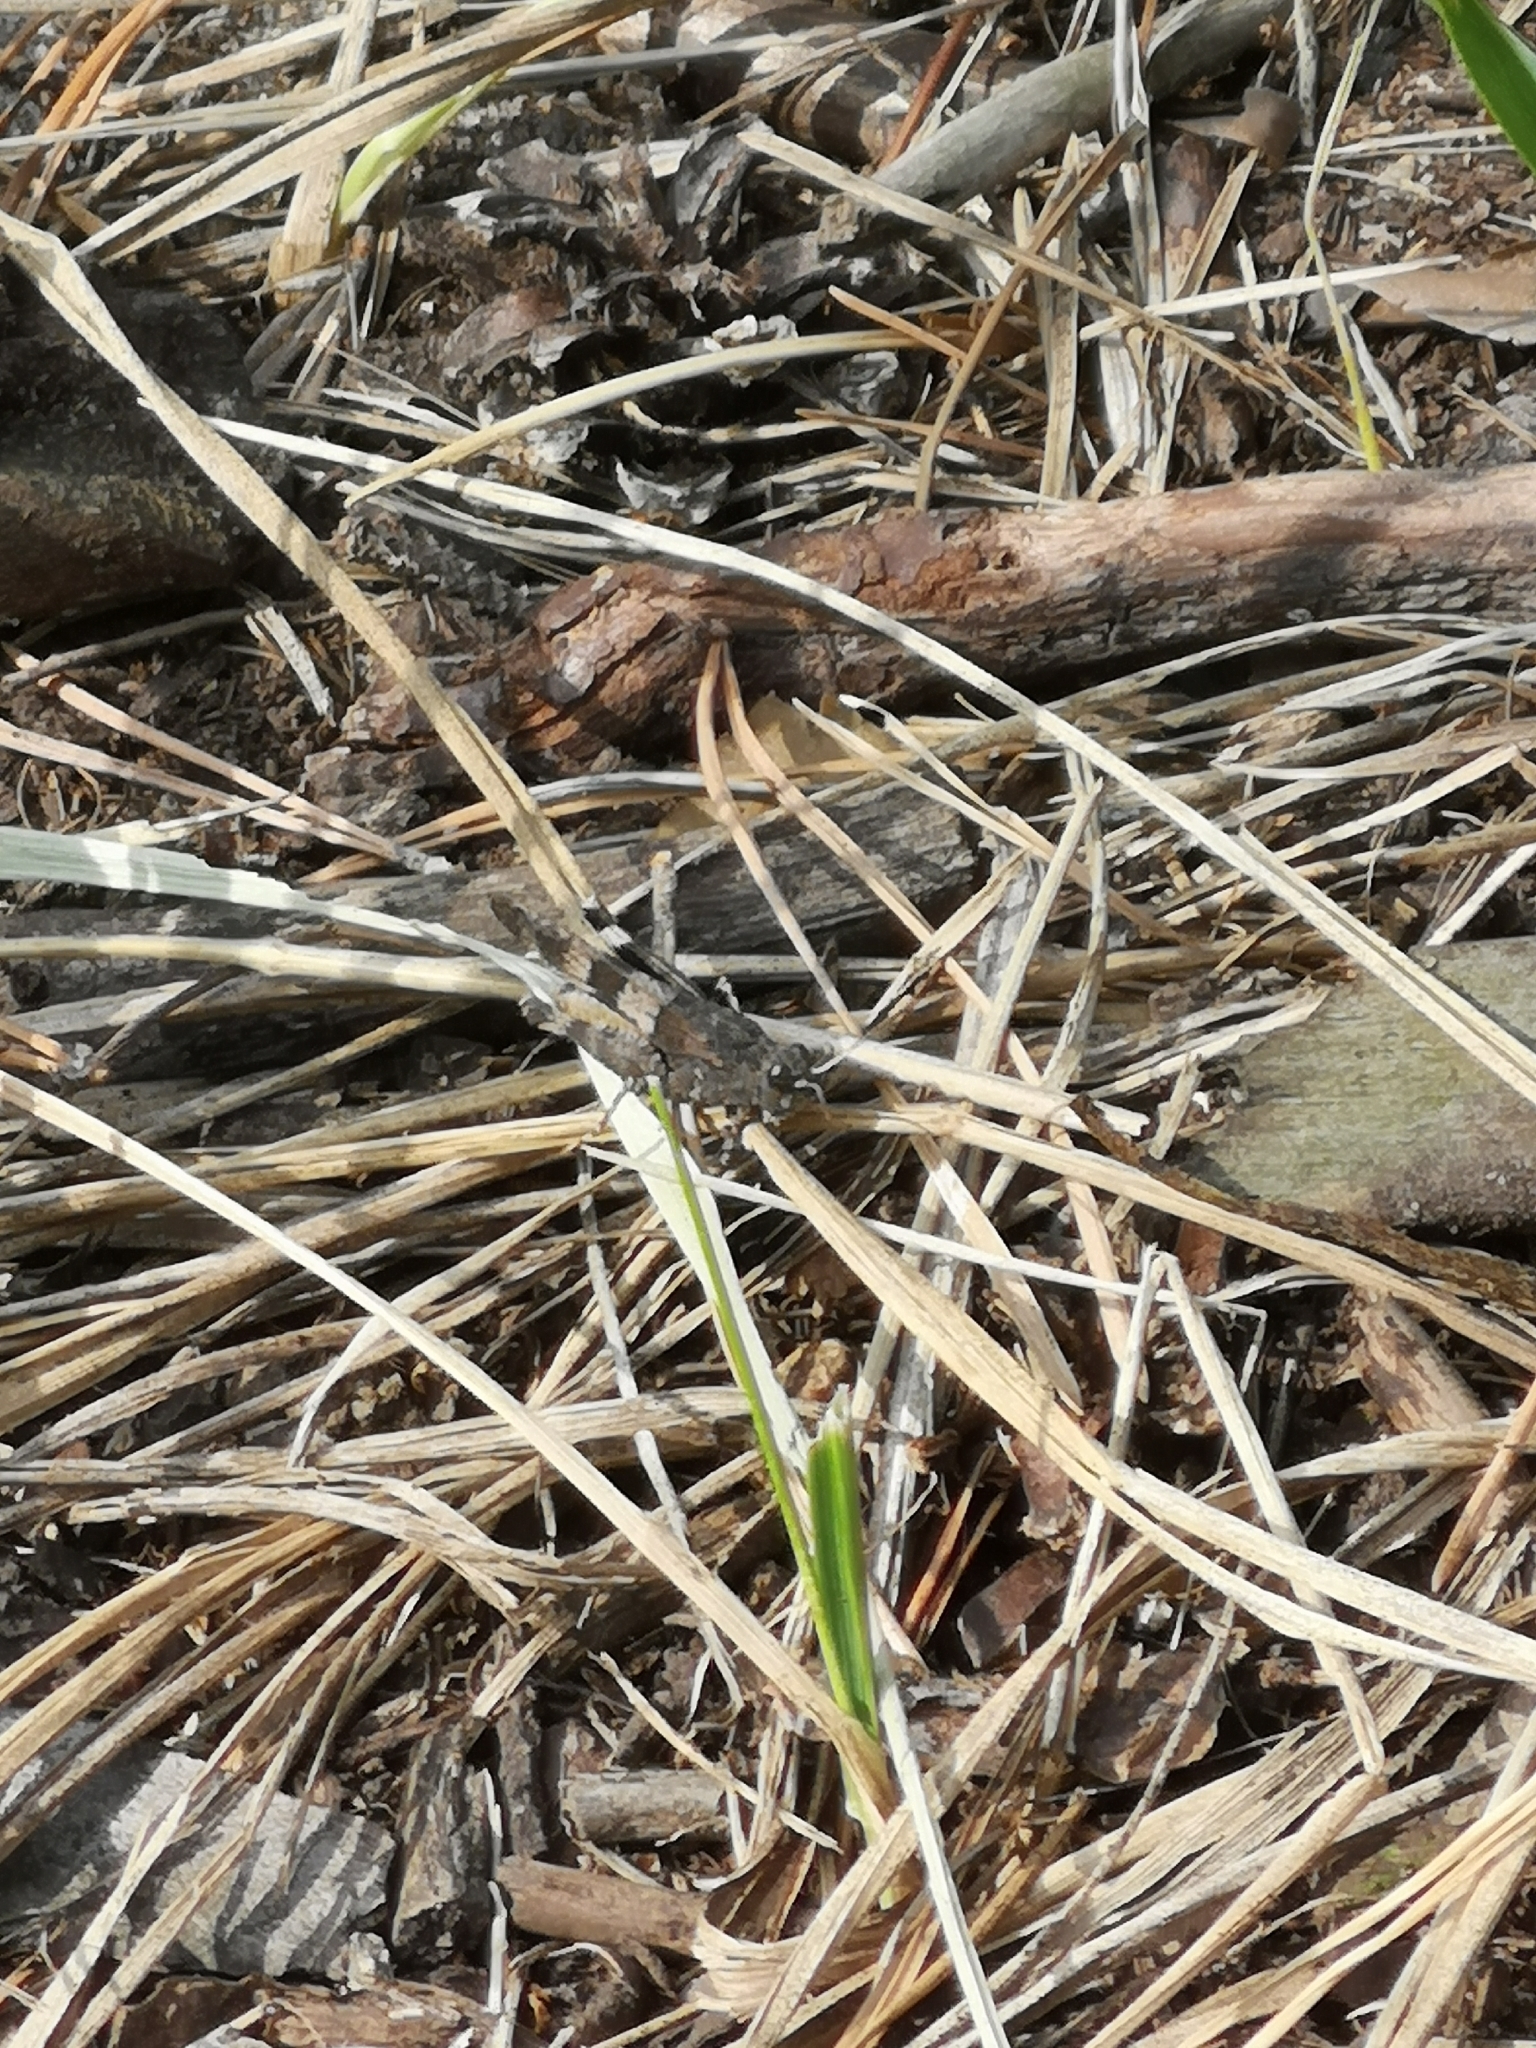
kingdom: Animalia
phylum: Arthropoda
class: Insecta
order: Orthoptera
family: Acrididae
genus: Oedipoda
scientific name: Oedipoda caerulescens
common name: Blue-winged grasshopper
